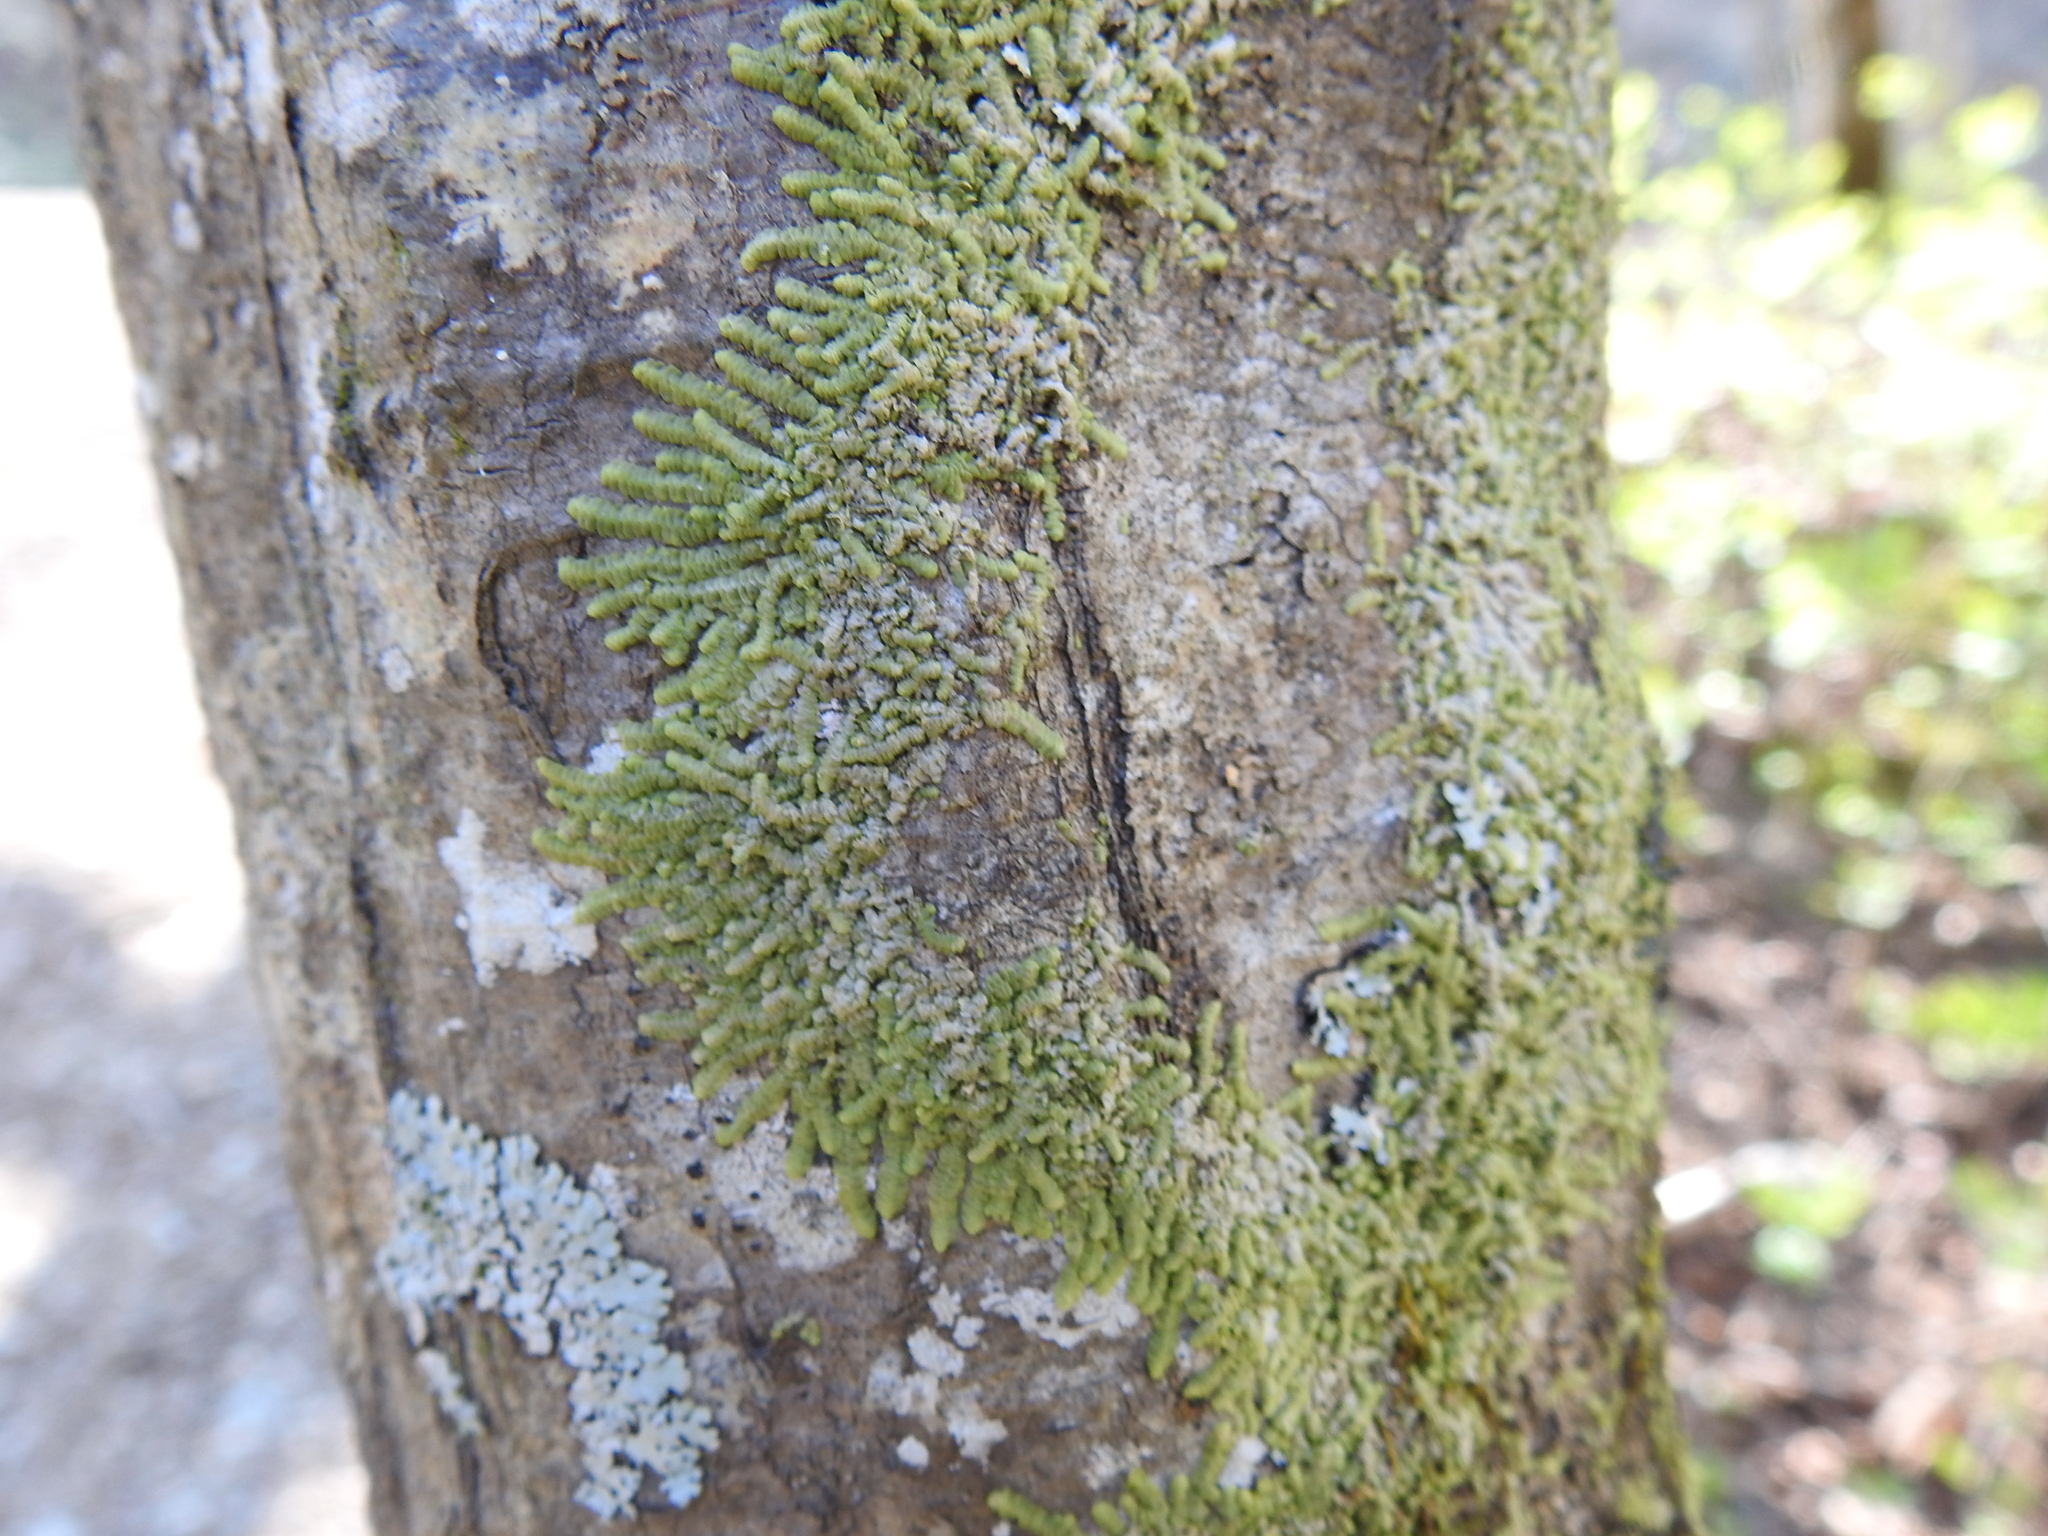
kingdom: Plantae
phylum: Marchantiophyta
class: Jungermanniopsida
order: Porellales
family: Radulaceae
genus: Radula
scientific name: Radula complanata
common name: Flat-leaved scalewort
